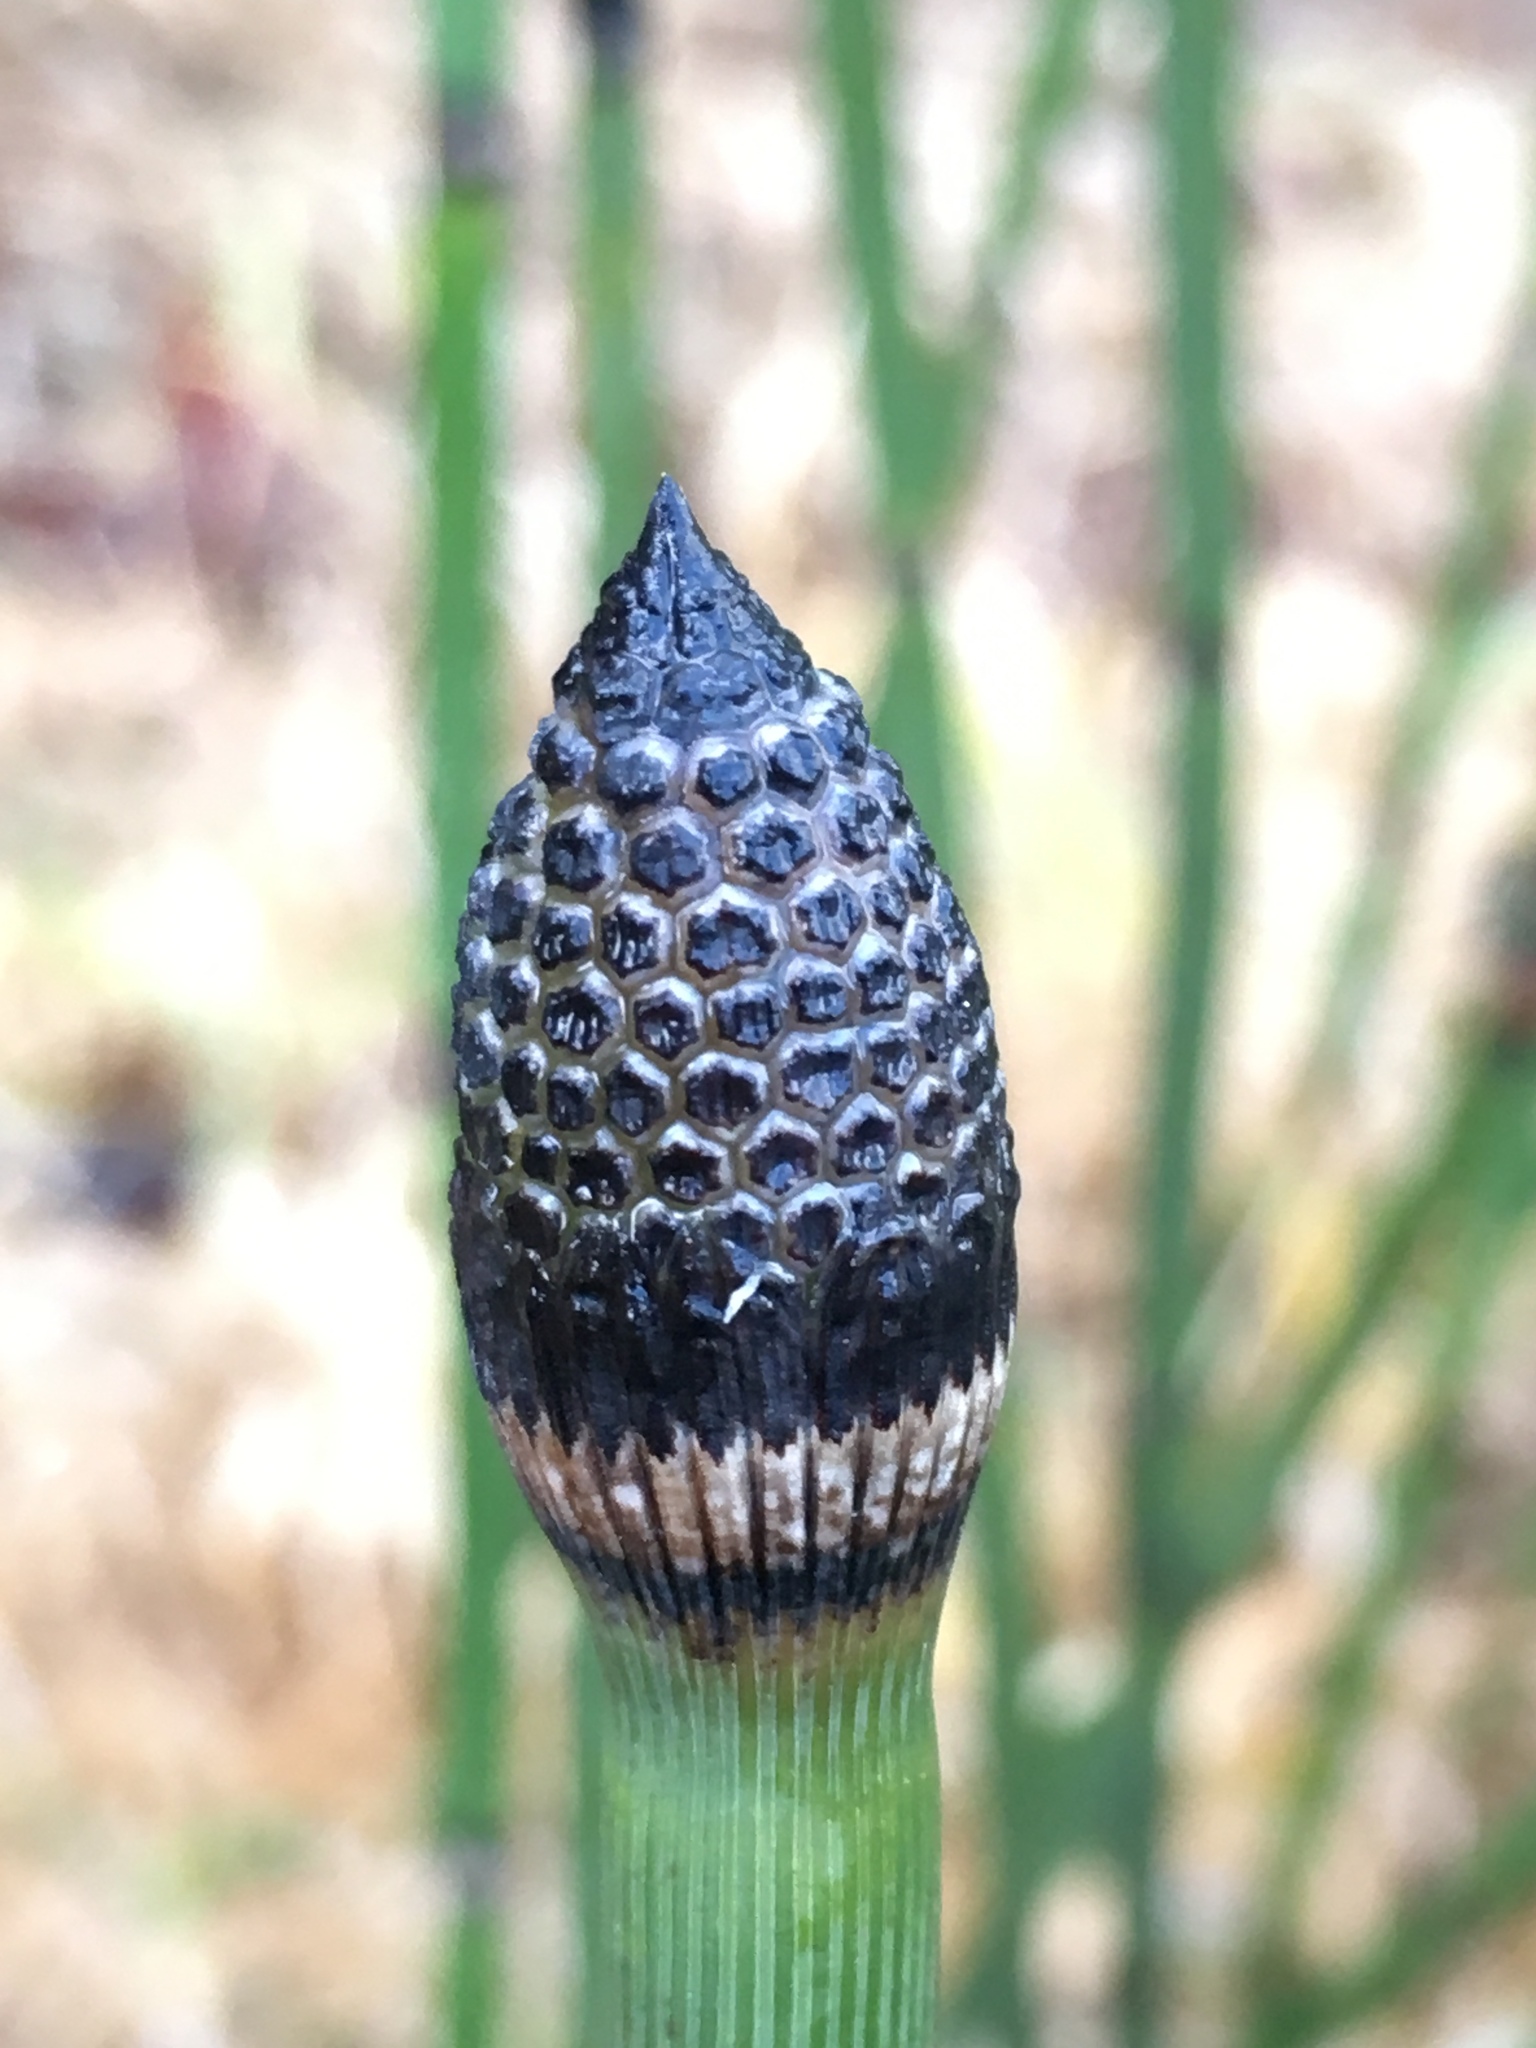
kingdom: Plantae
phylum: Tracheophyta
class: Polypodiopsida
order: Equisetales
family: Equisetaceae
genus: Equisetum
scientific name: Equisetum hyemale
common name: Rough horsetail
